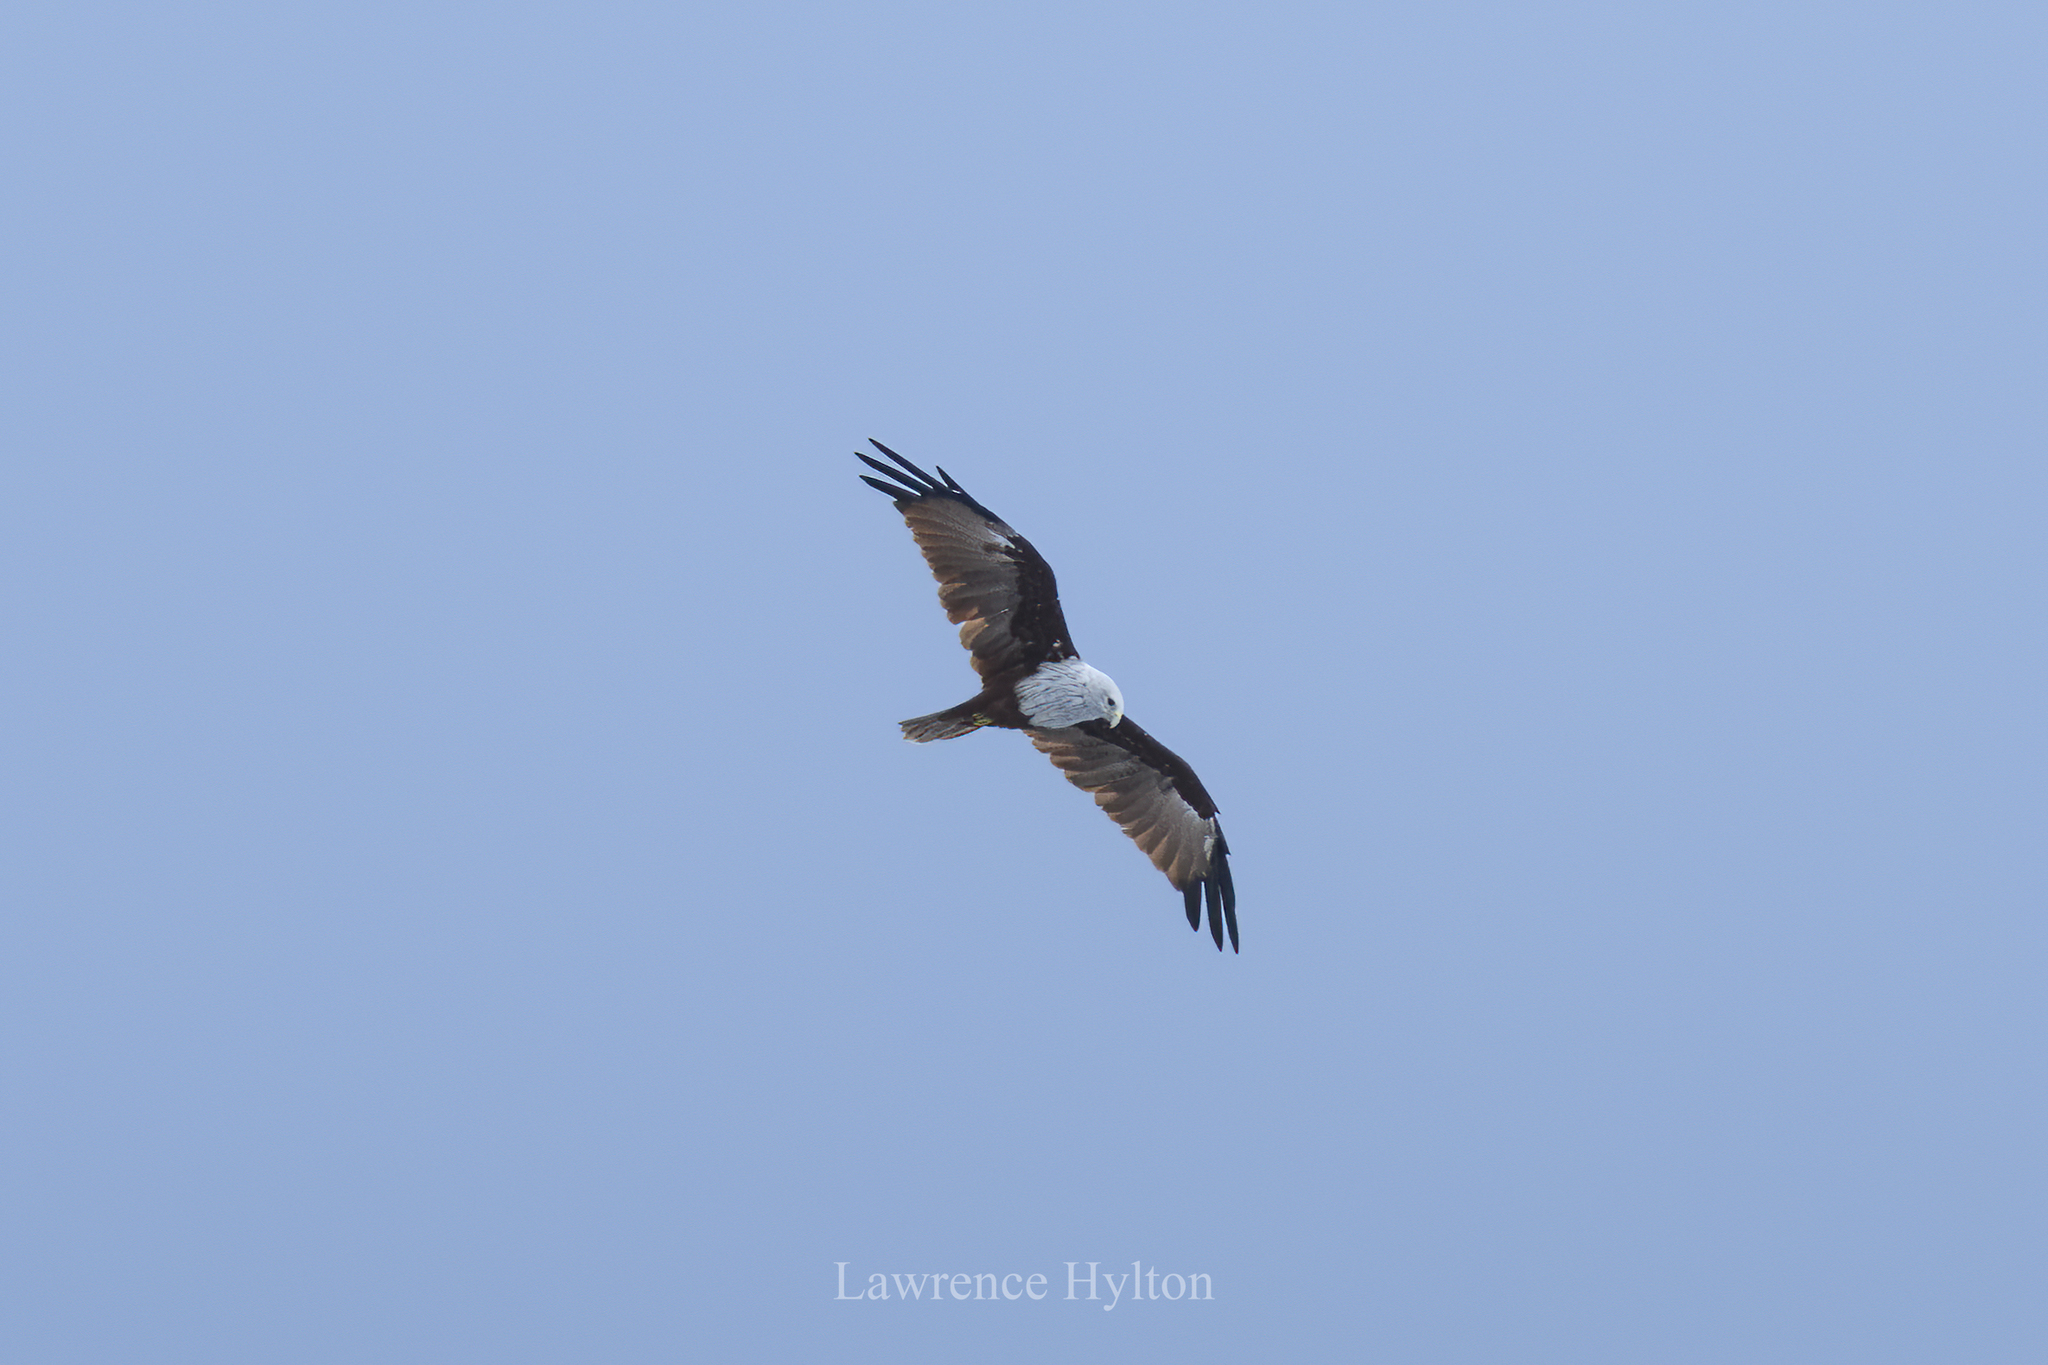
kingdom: Animalia
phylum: Chordata
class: Aves
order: Accipitriformes
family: Accipitridae
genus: Haliastur
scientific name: Haliastur indus
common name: Brahminy kite
